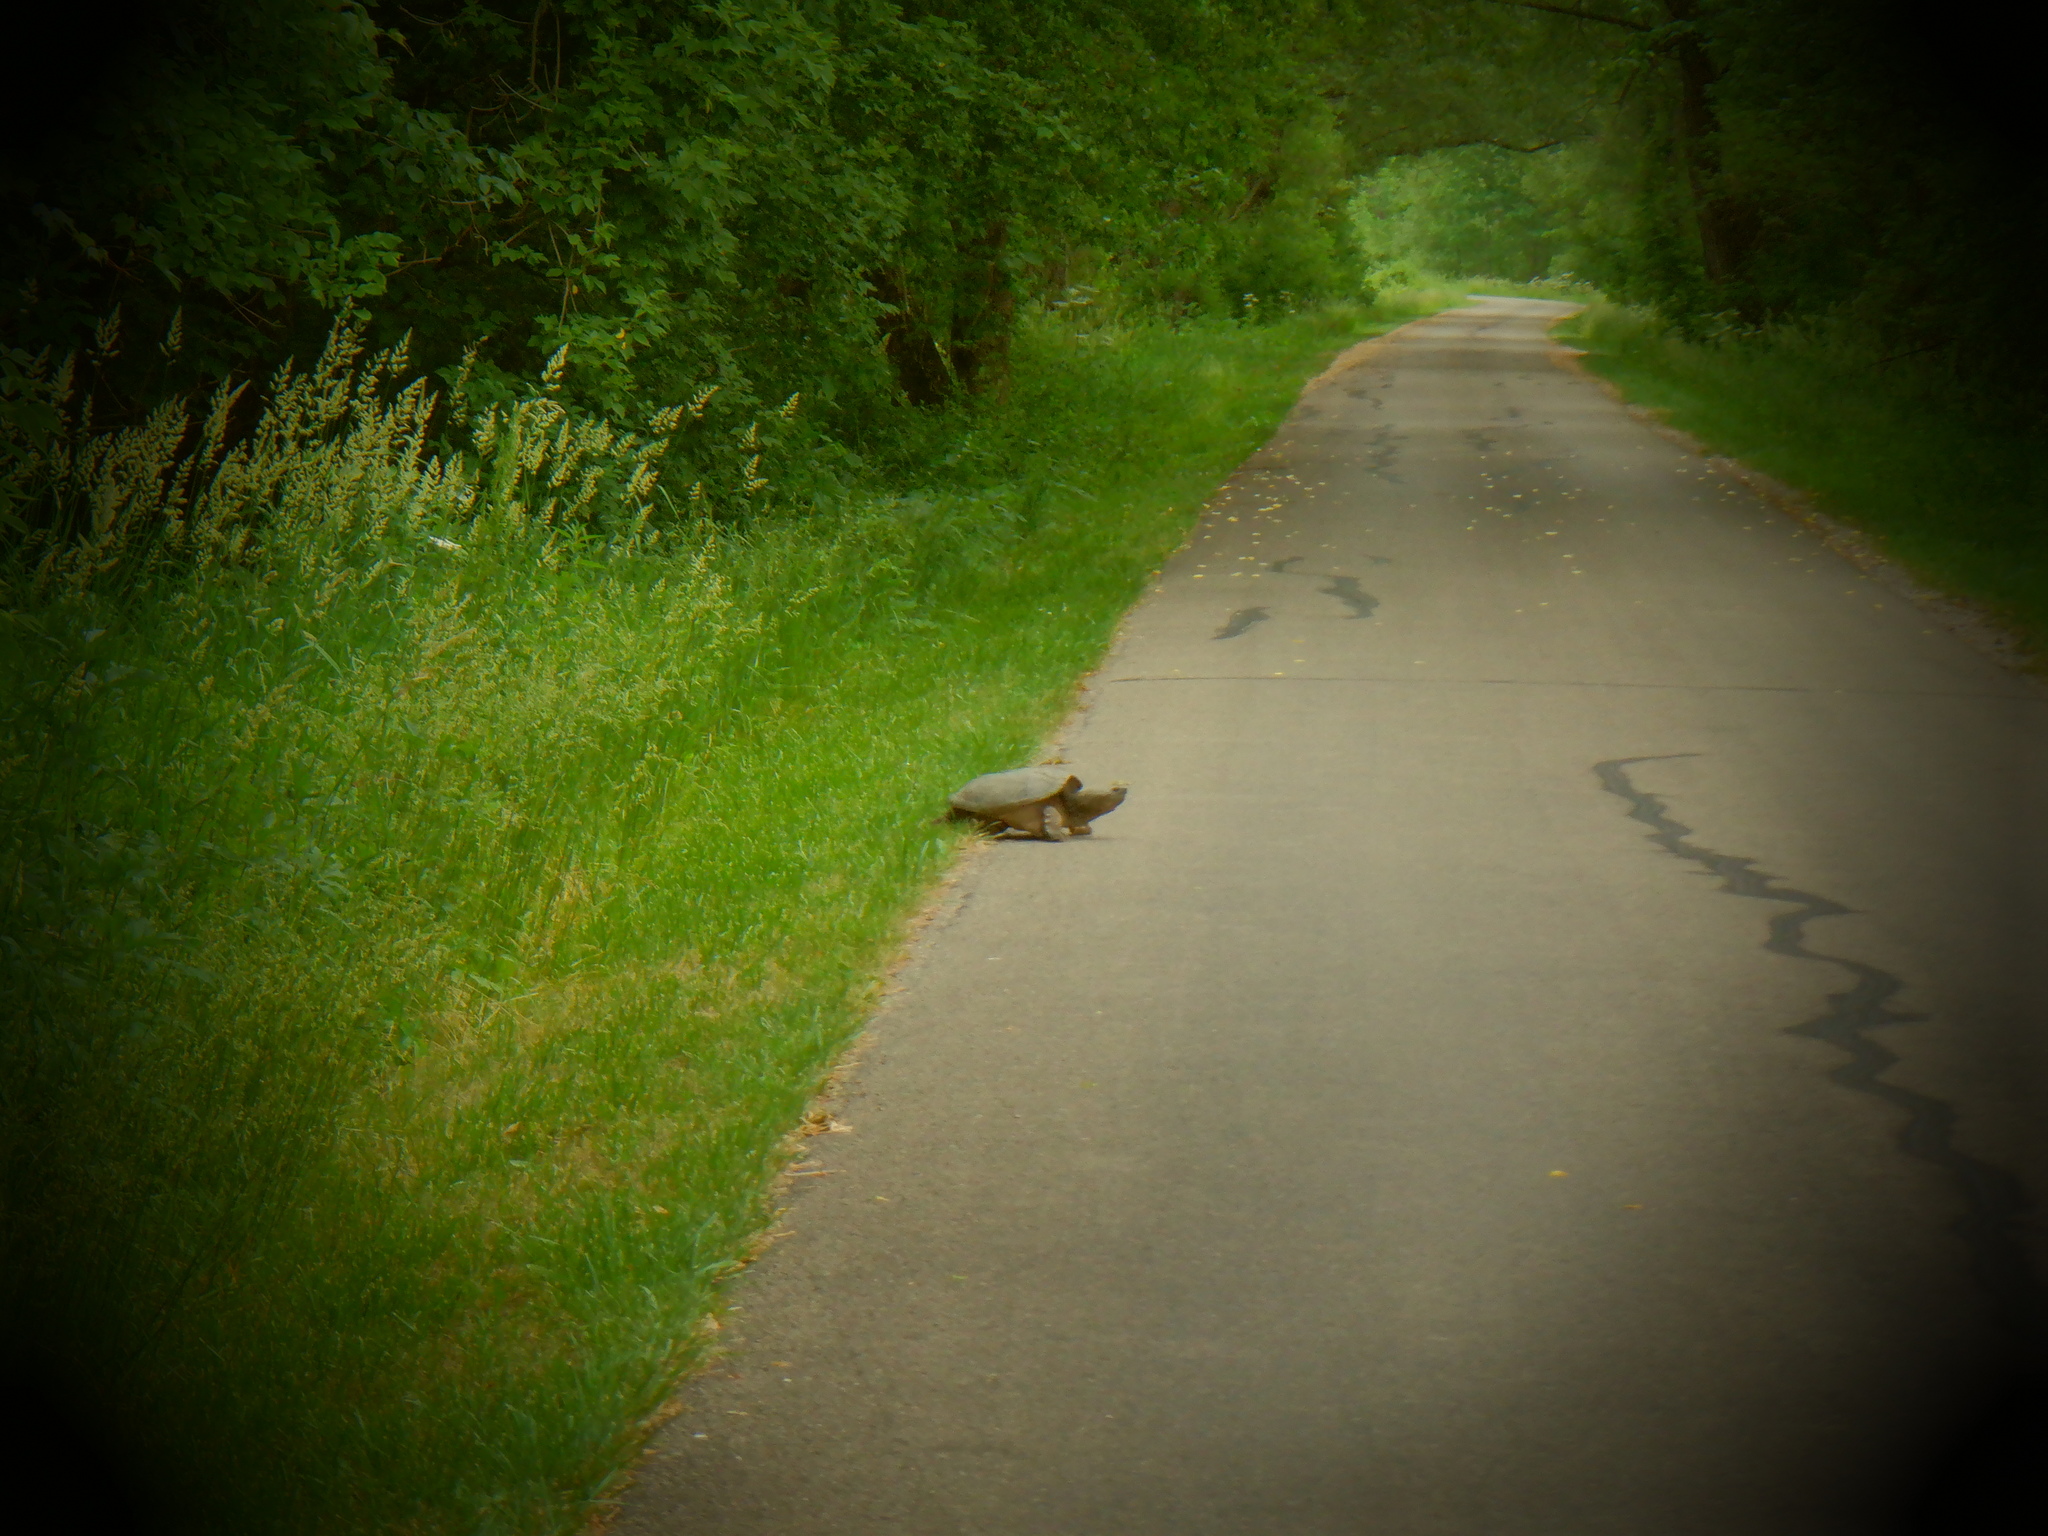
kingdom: Animalia
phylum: Chordata
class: Testudines
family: Chelydridae
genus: Chelydra
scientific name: Chelydra serpentina
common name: Common snapping turtle
